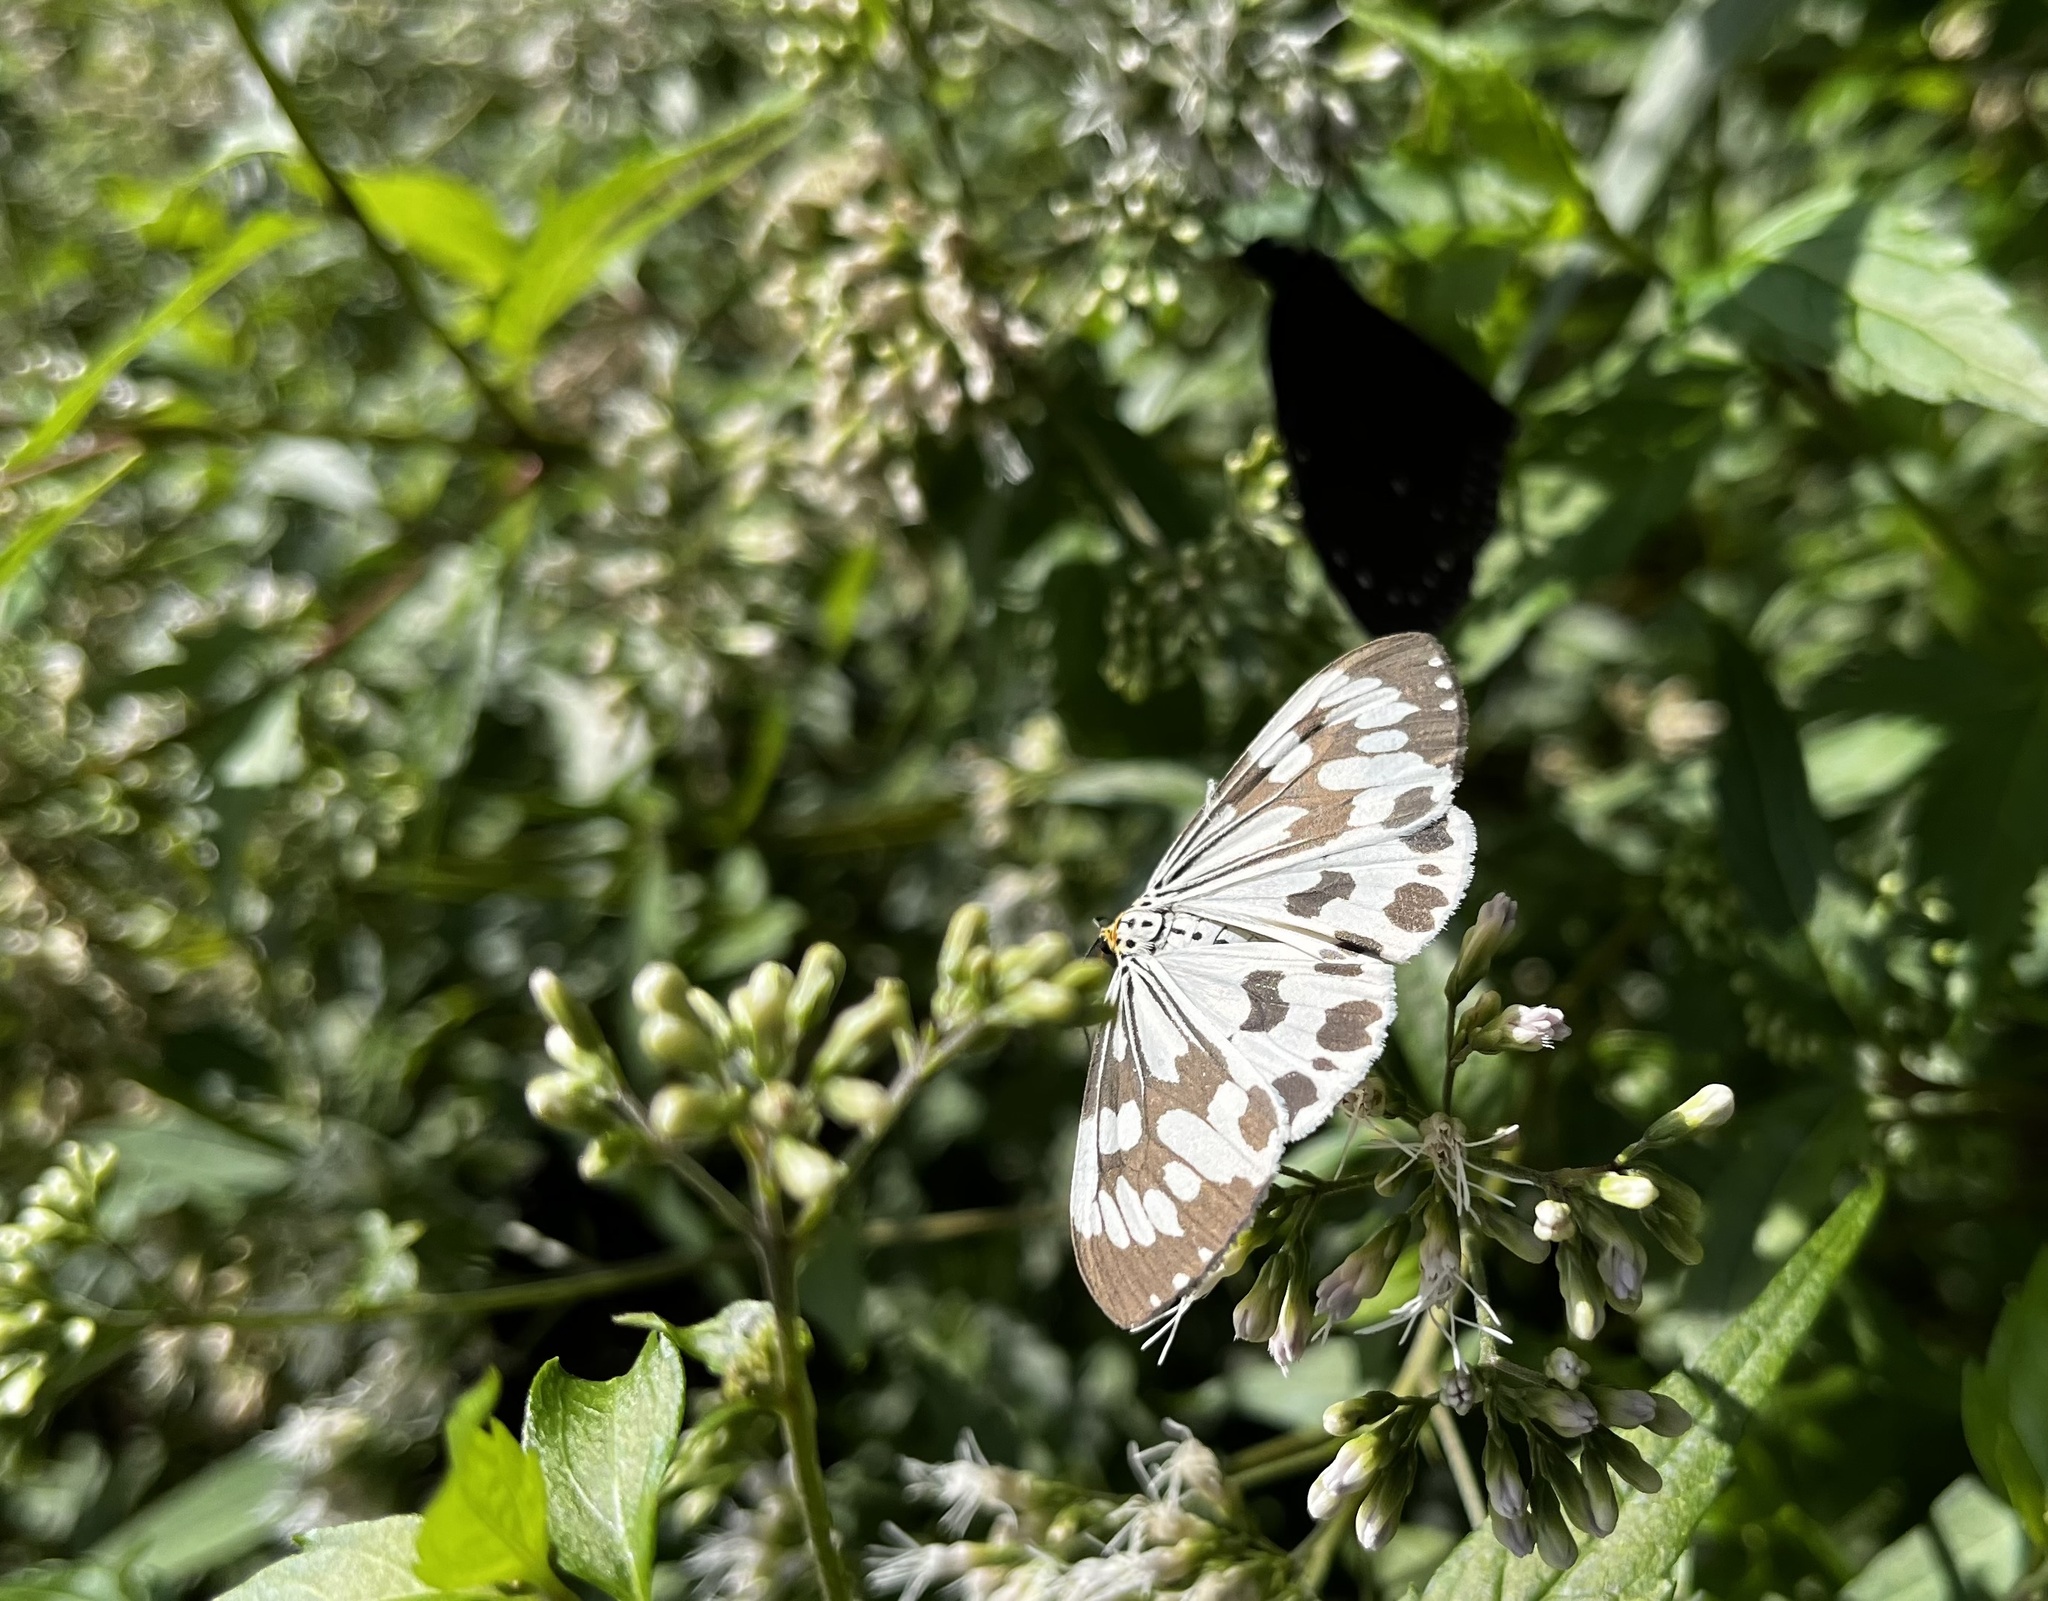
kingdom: Animalia
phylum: Arthropoda
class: Insecta
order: Lepidoptera
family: Erebidae
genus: Nyctemera
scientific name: Nyctemera adversata
